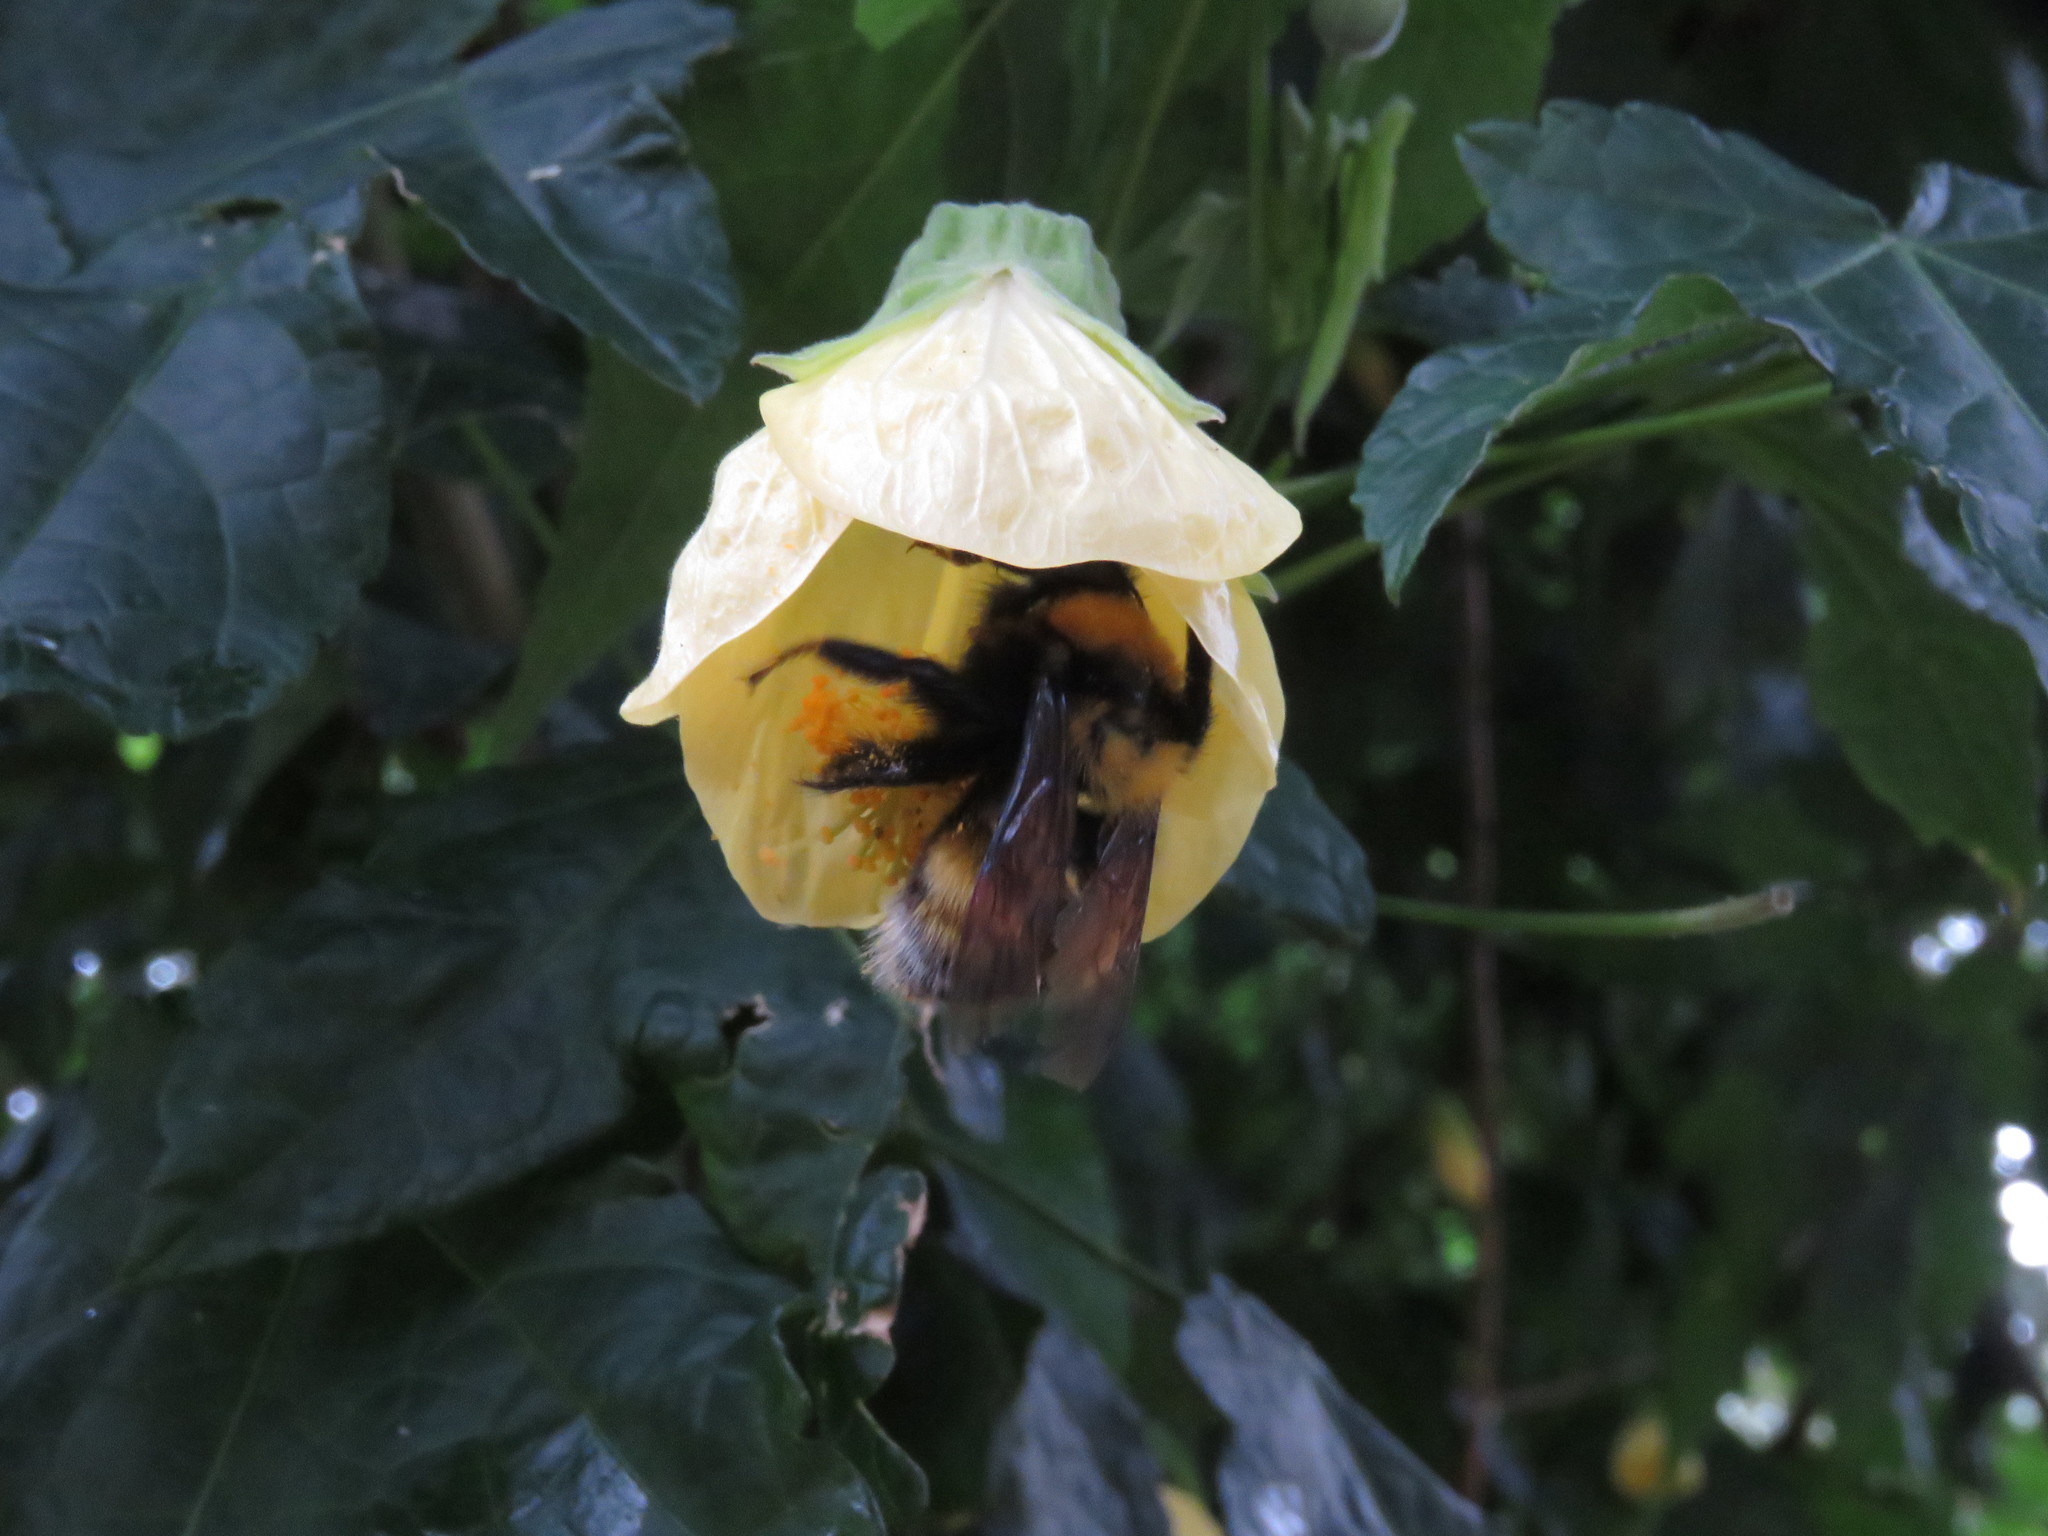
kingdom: Animalia
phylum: Arthropoda
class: Insecta
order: Hymenoptera
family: Apidae
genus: Bombus
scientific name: Bombus hortulanus
